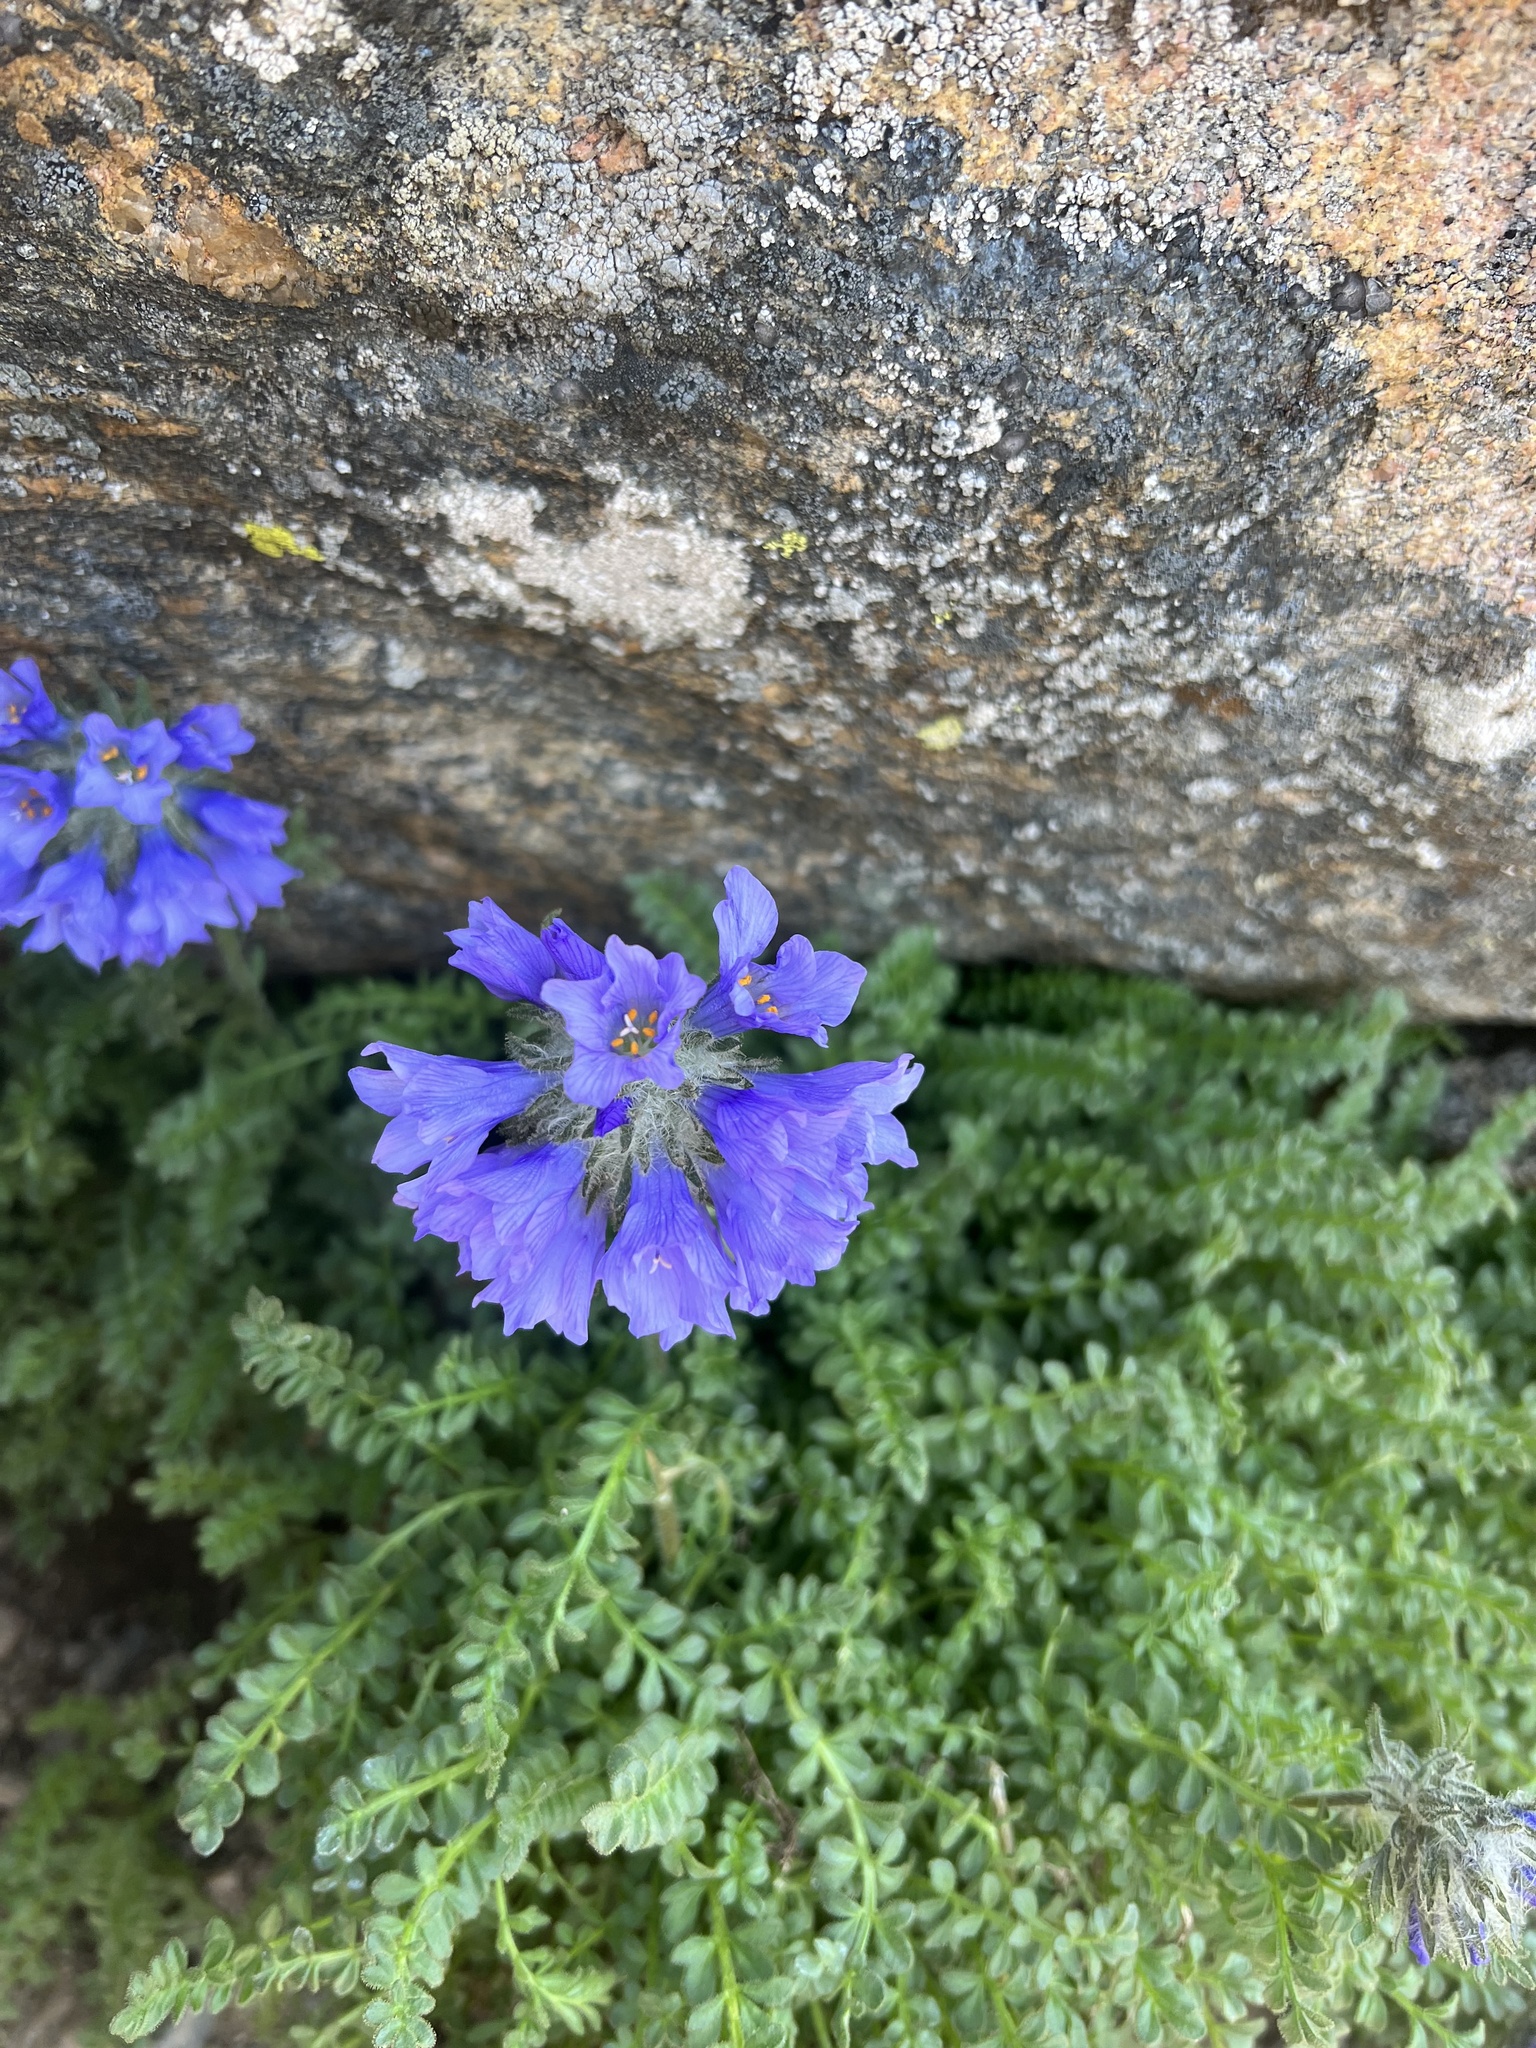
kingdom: Plantae
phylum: Tracheophyta
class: Magnoliopsida
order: Ericales
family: Polemoniaceae
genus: Polemonium
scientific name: Polemonium viscosum
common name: Skunk jacob's-ladder
